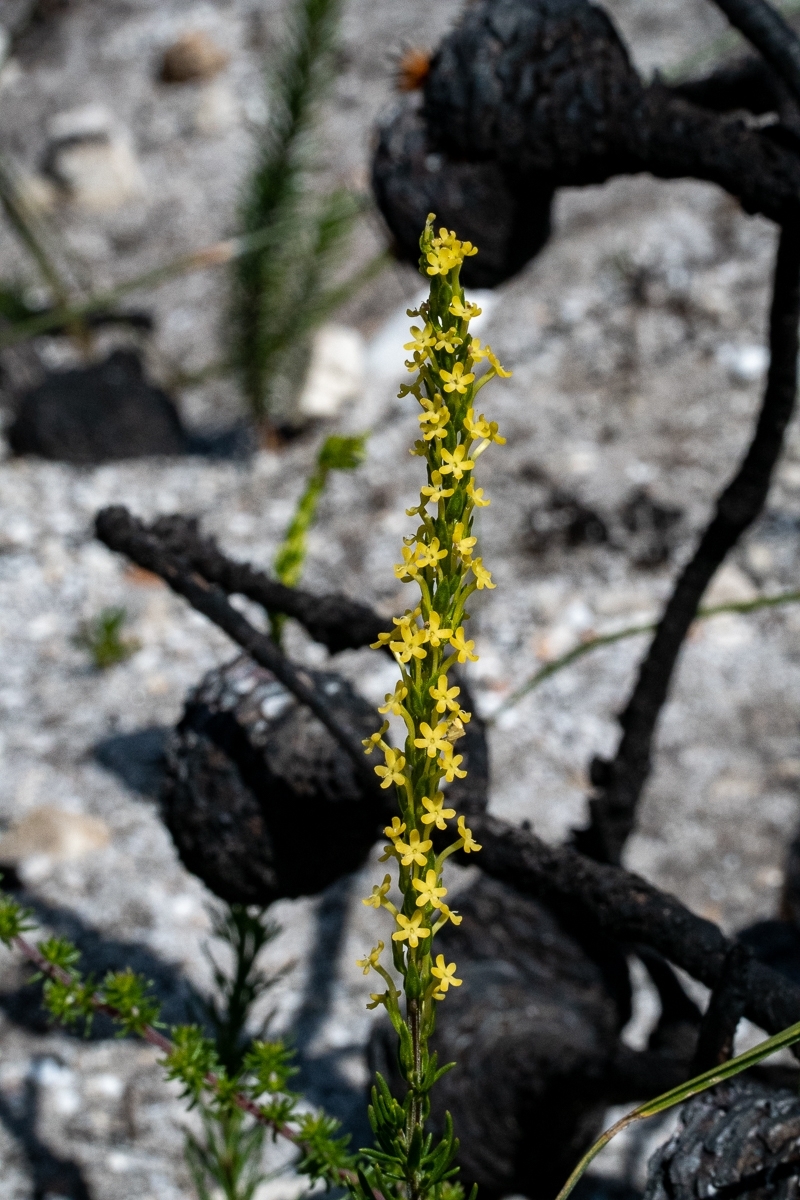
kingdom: Plantae
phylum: Tracheophyta
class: Magnoliopsida
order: Lamiales
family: Scrophulariaceae
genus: Microdon
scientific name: Microdon dubius
